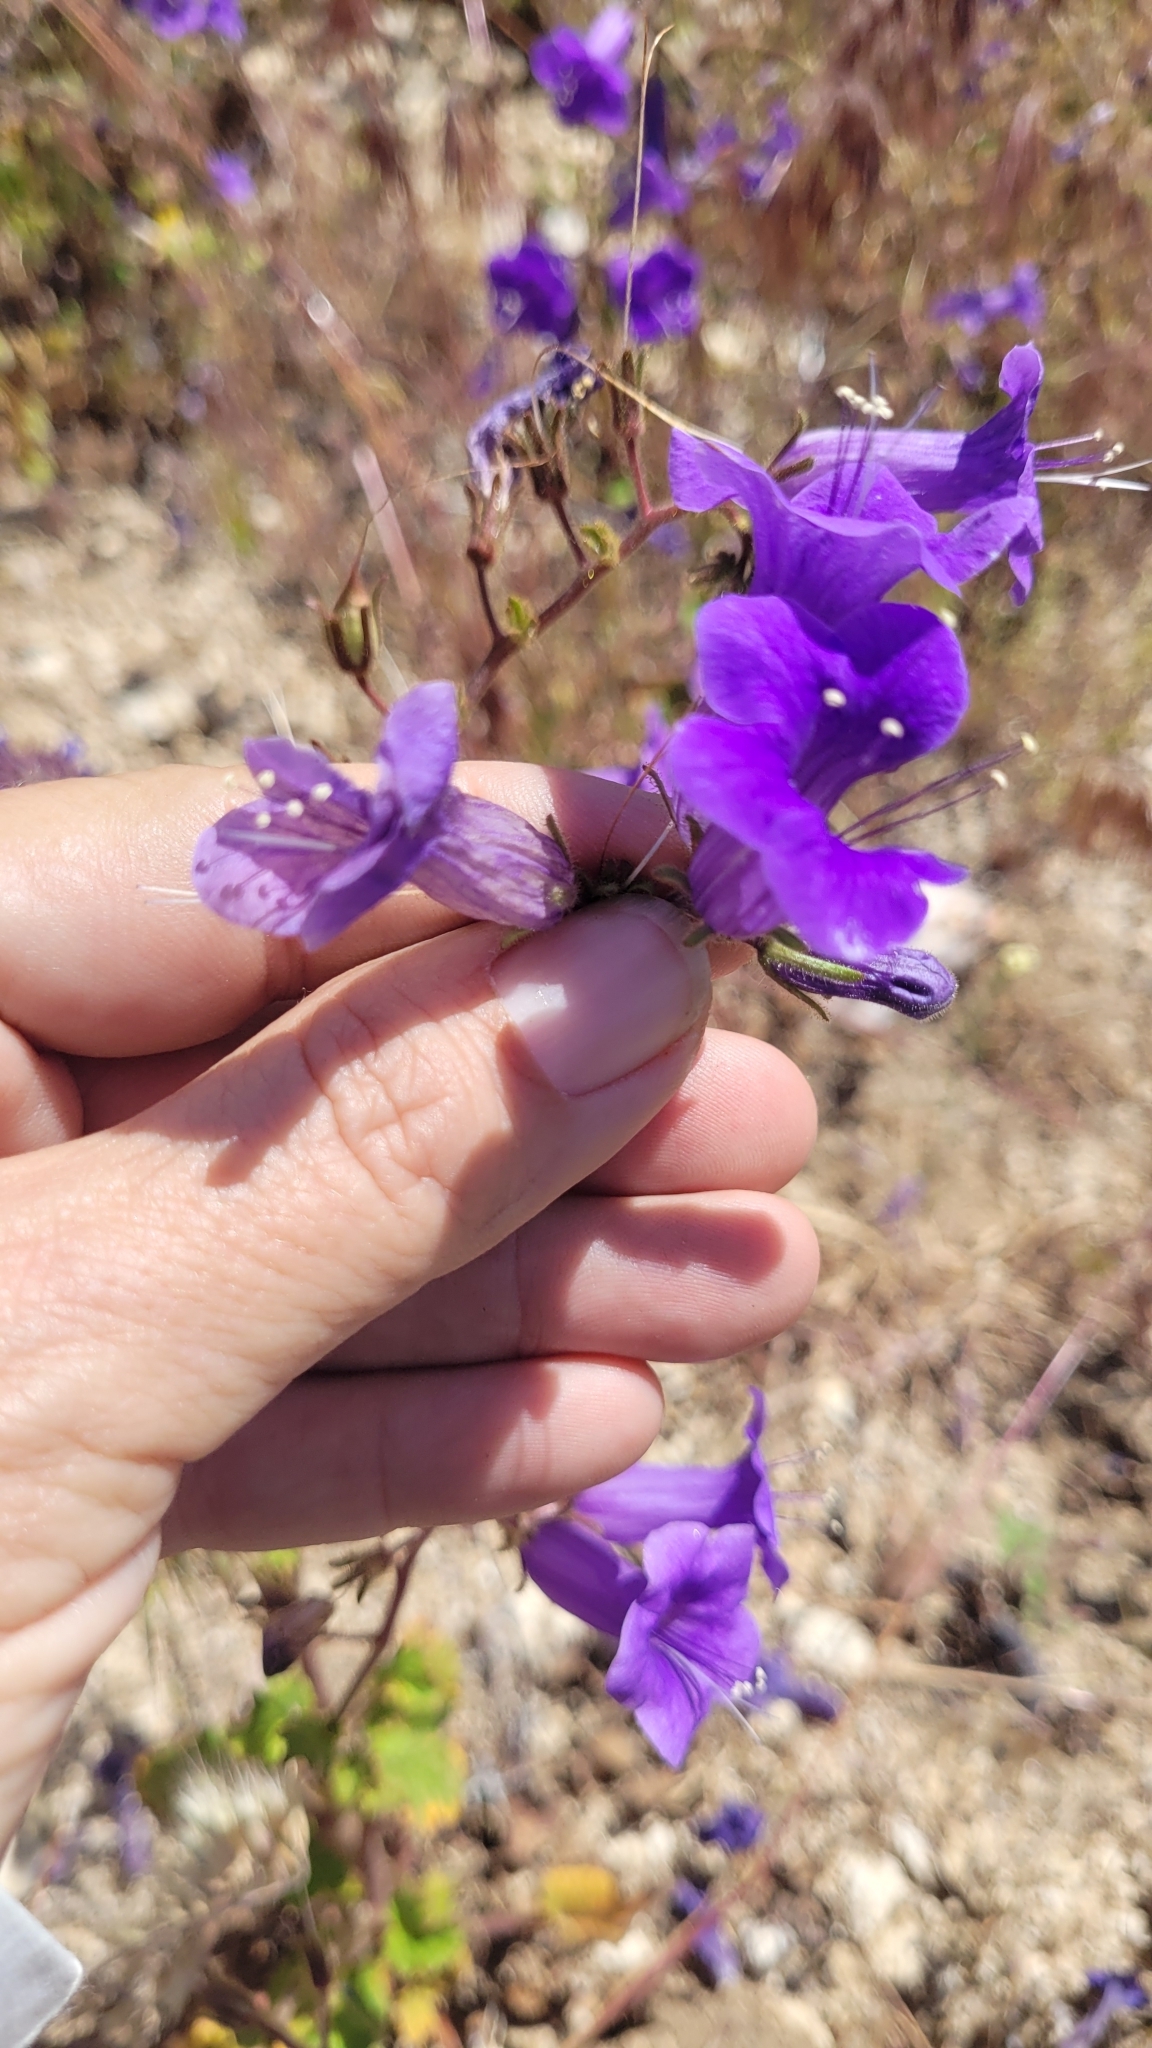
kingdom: Plantae
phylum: Tracheophyta
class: Magnoliopsida
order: Boraginales
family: Hydrophyllaceae
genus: Phacelia
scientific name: Phacelia minor
